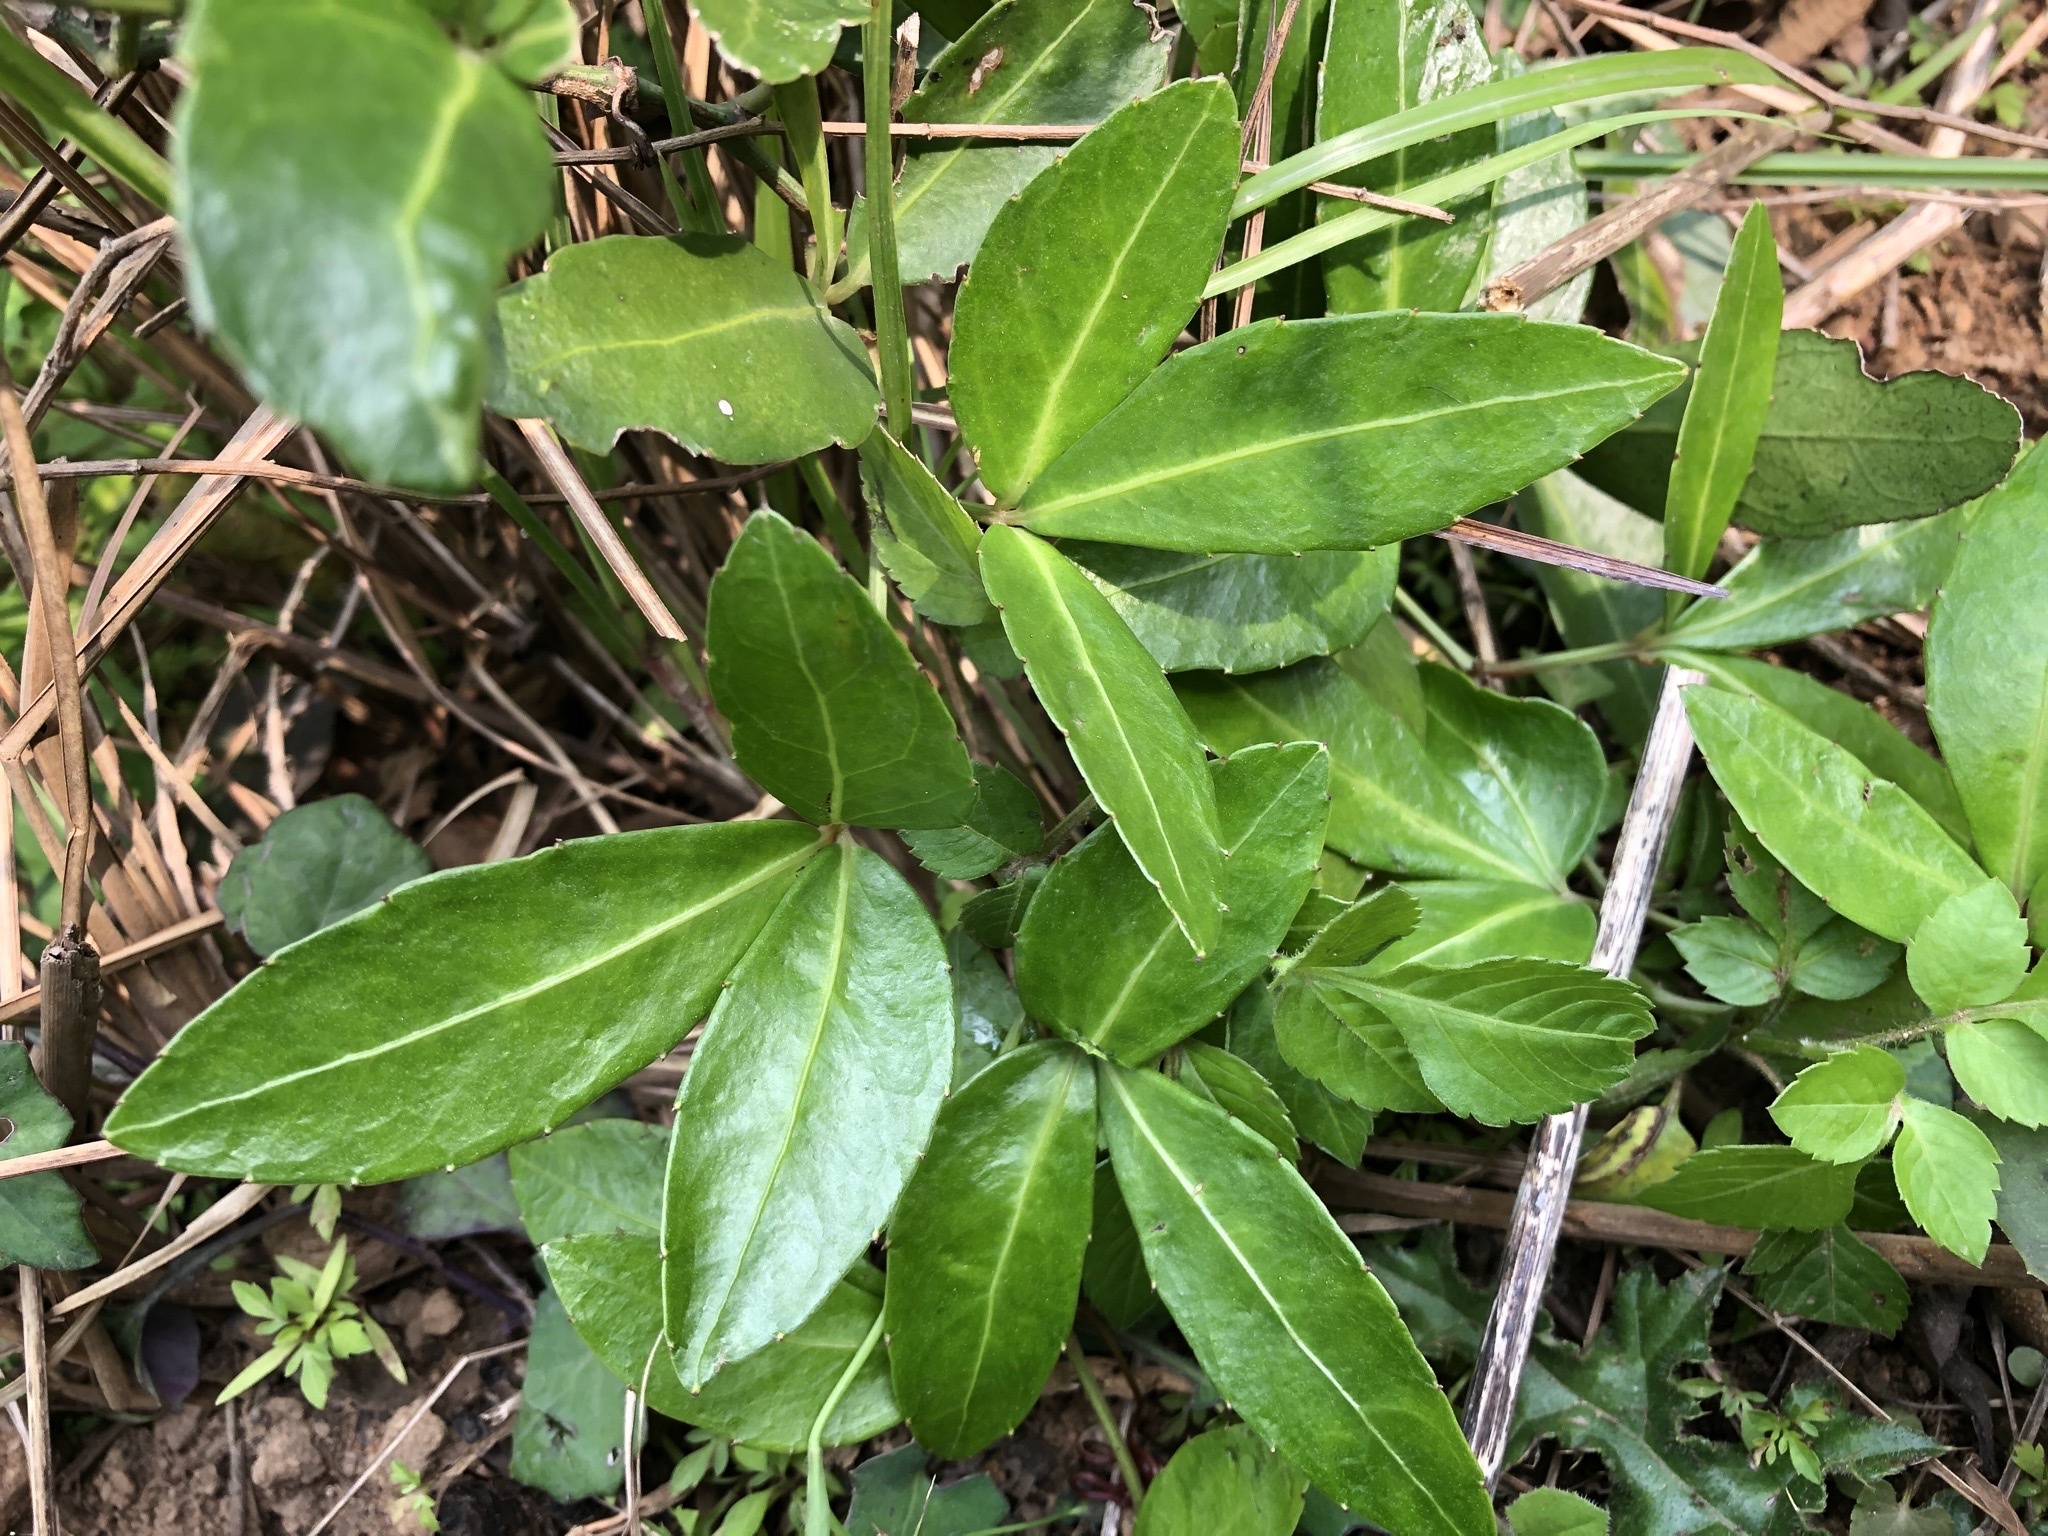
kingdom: Plantae
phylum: Tracheophyta
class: Magnoliopsida
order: Vitales
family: Vitaceae
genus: Tetrastigma
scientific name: Tetrastigma formosanum
